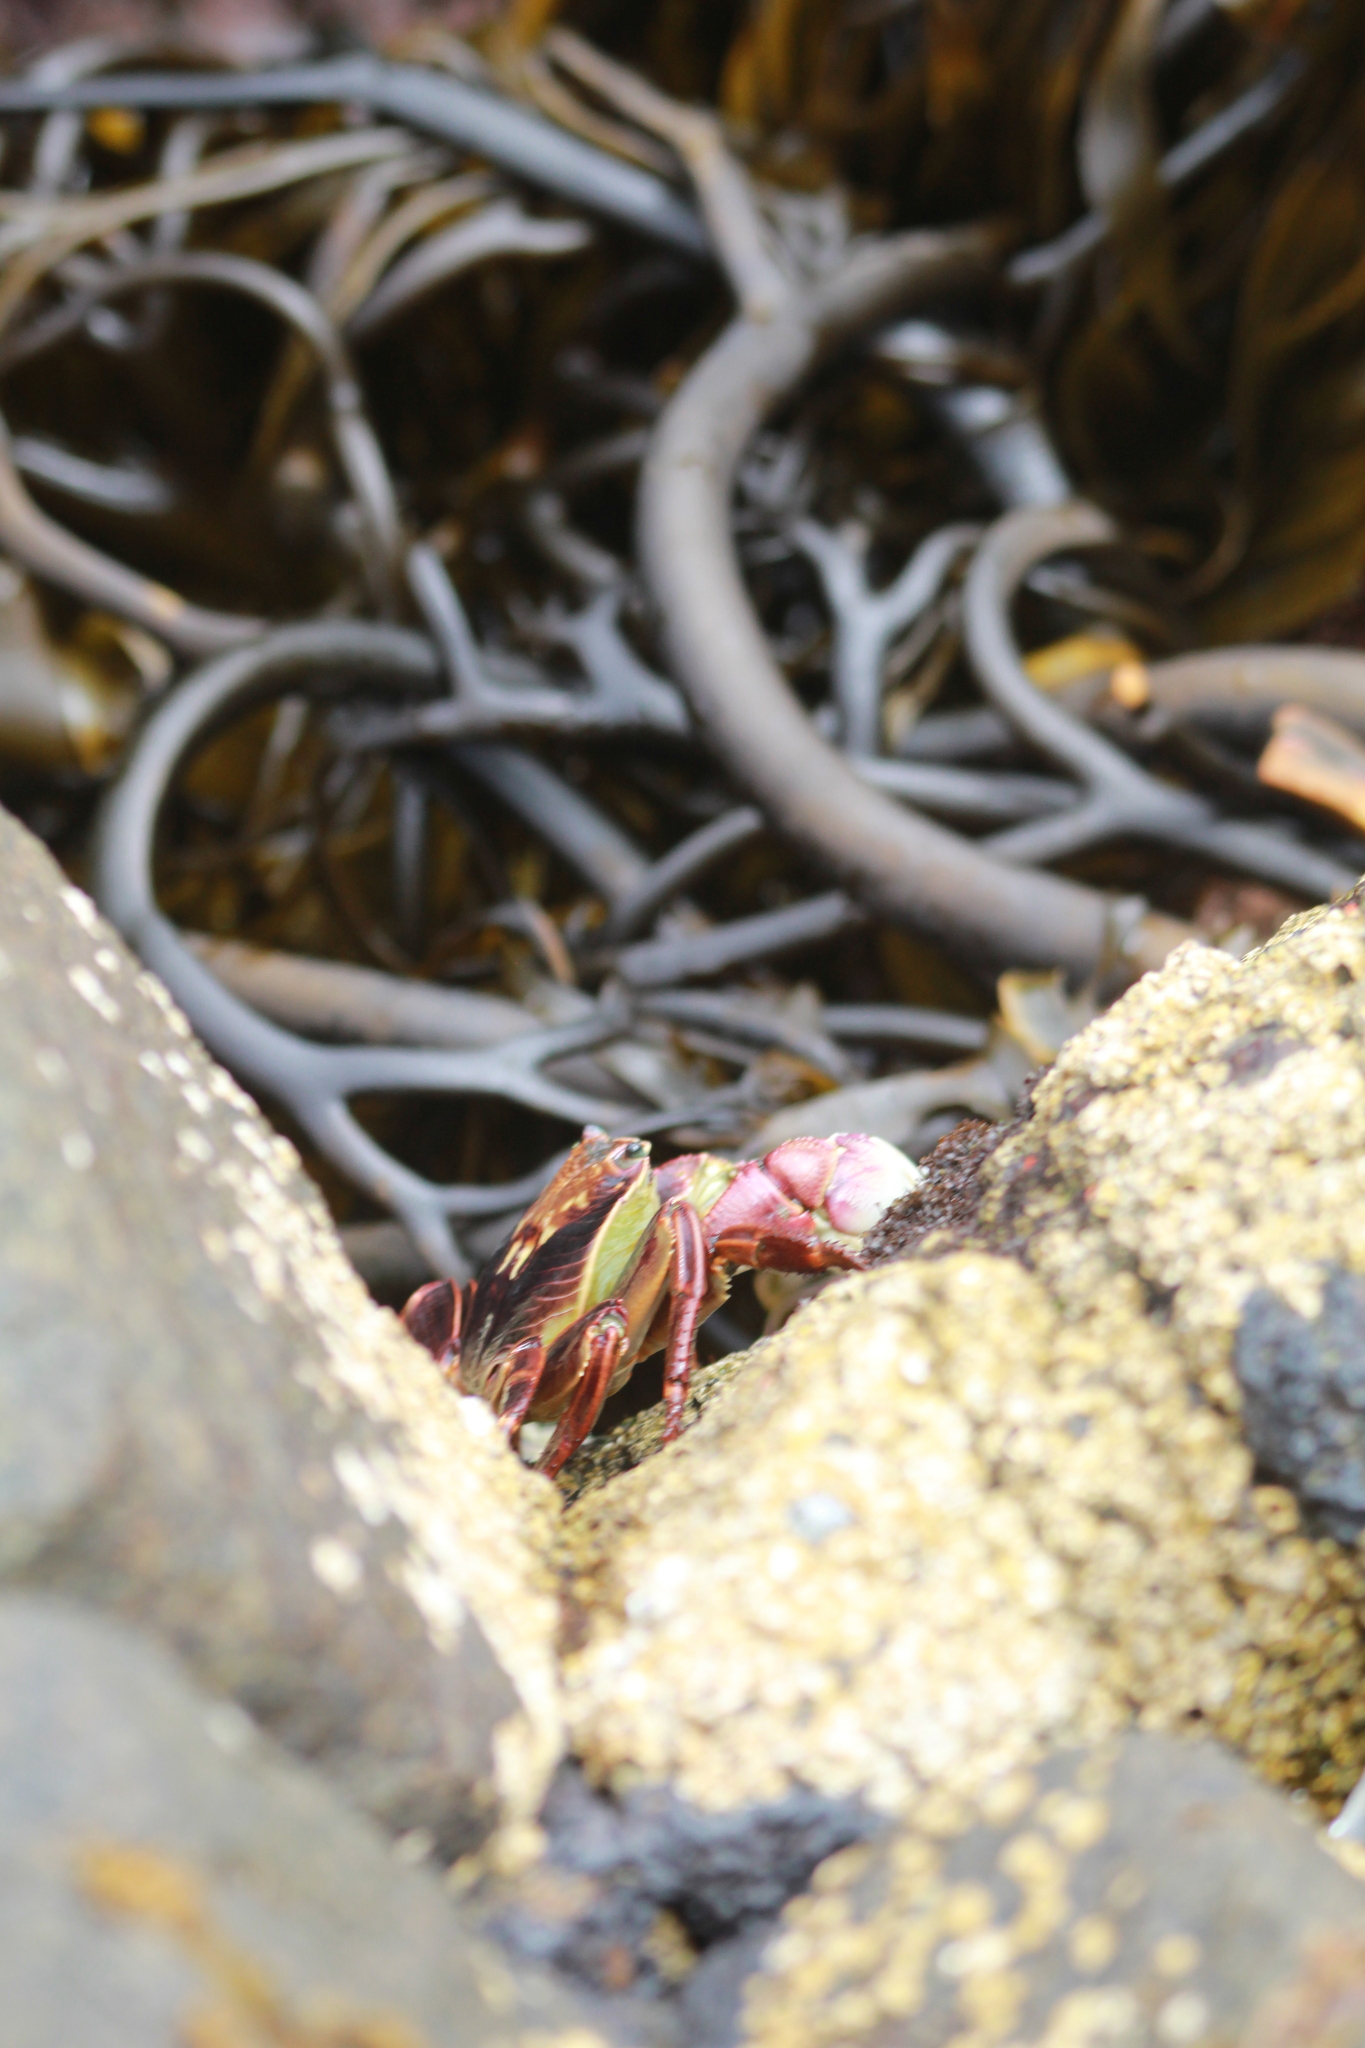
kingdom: Animalia
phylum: Arthropoda
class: Malacostraca
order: Decapoda
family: Grapsidae
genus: Leptograpsus
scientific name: Leptograpsus variegatus
